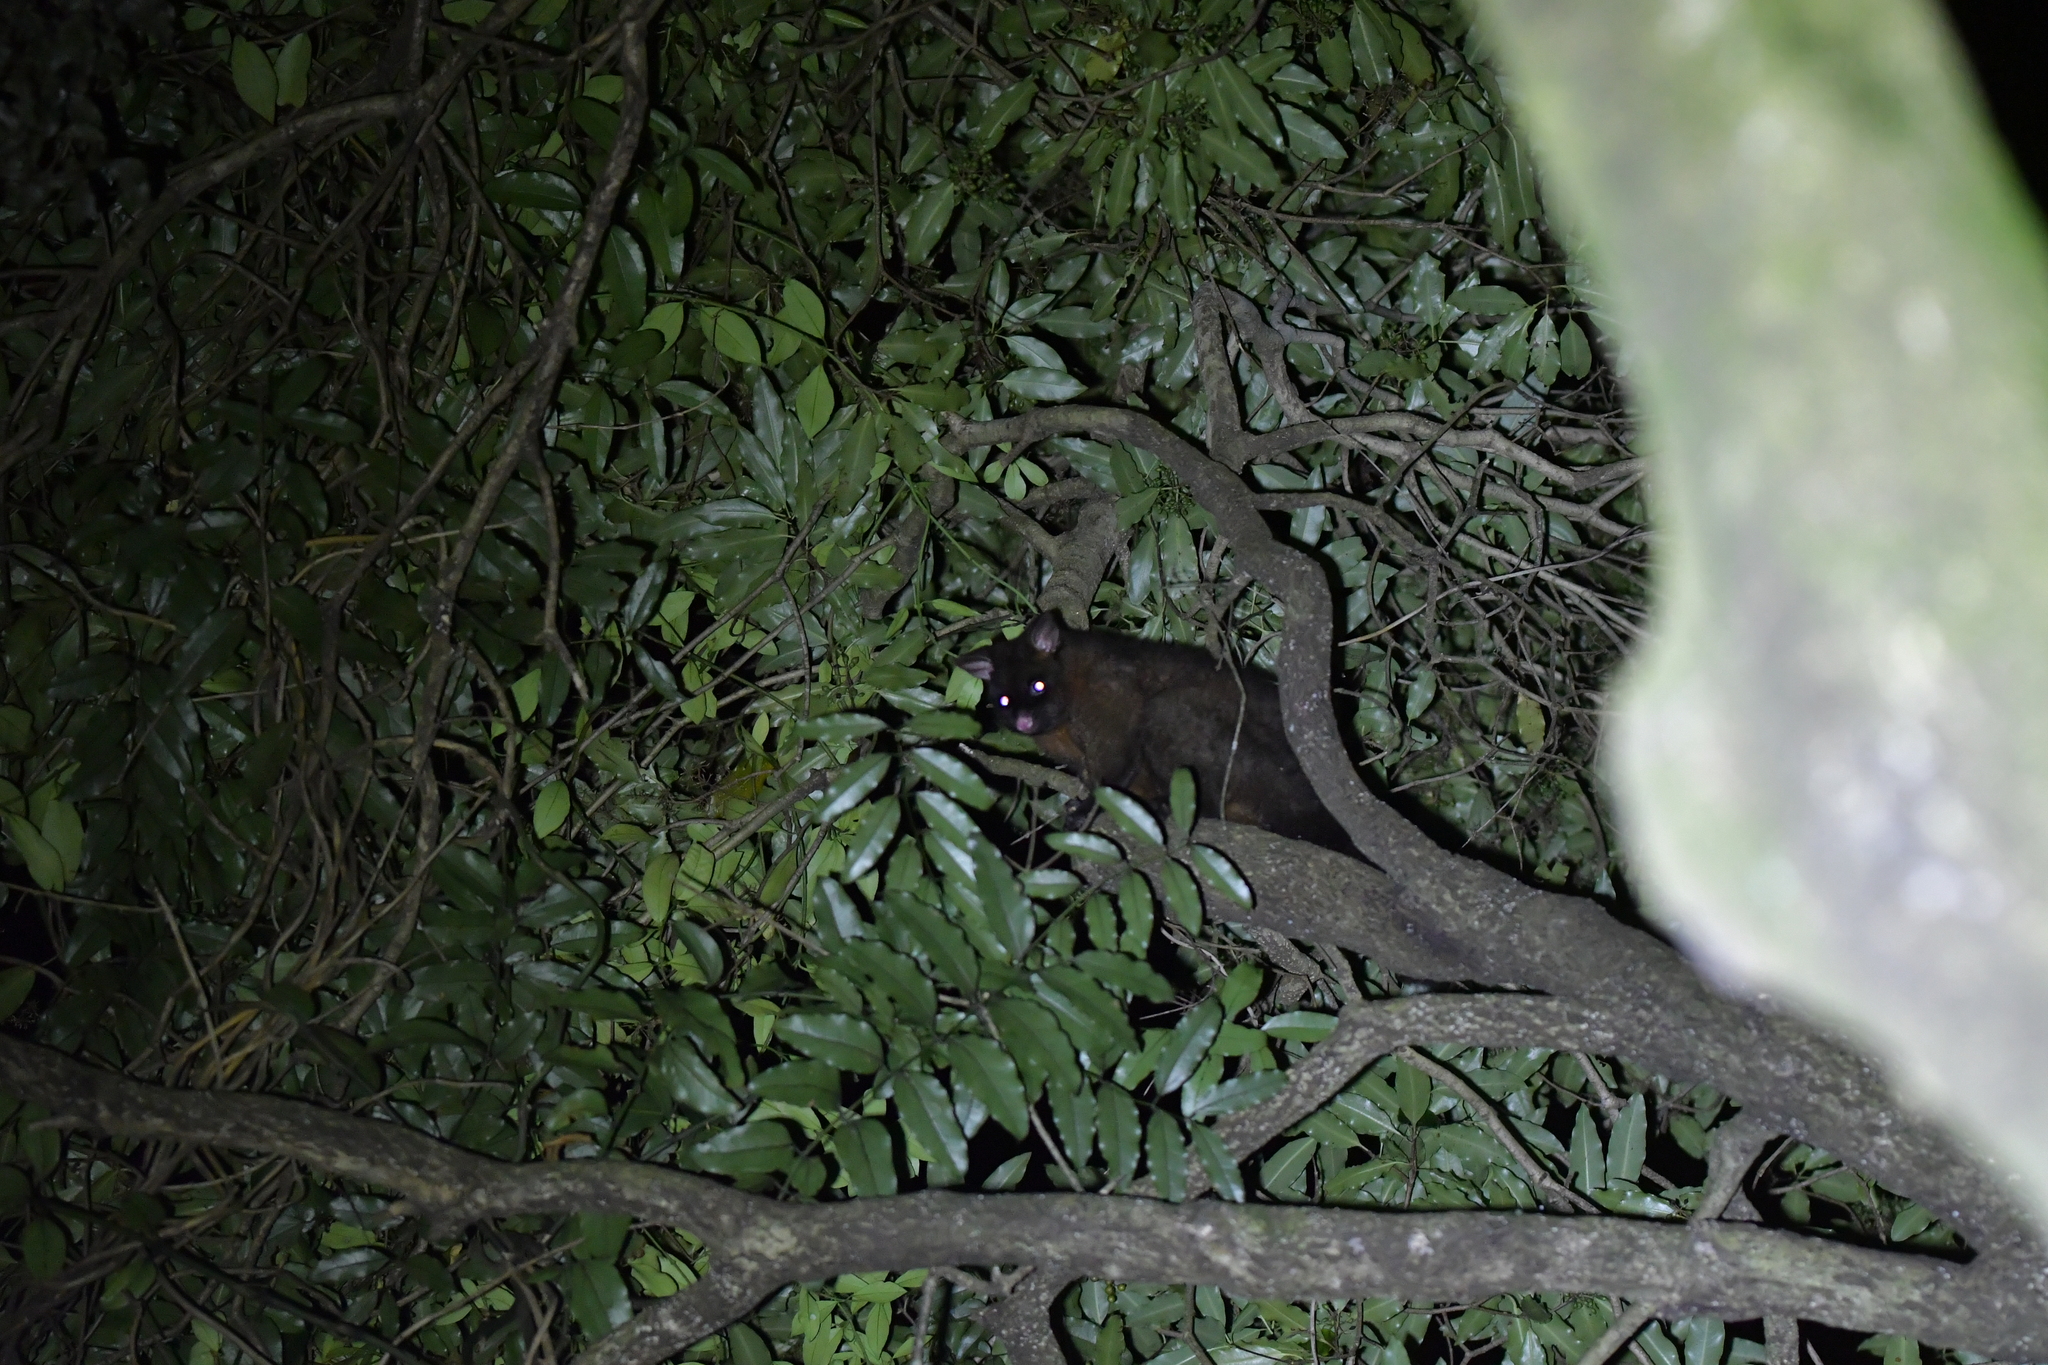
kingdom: Animalia
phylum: Chordata
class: Mammalia
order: Diprotodontia
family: Phalangeridae
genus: Trichosurus
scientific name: Trichosurus vulpecula
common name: Common brushtail
